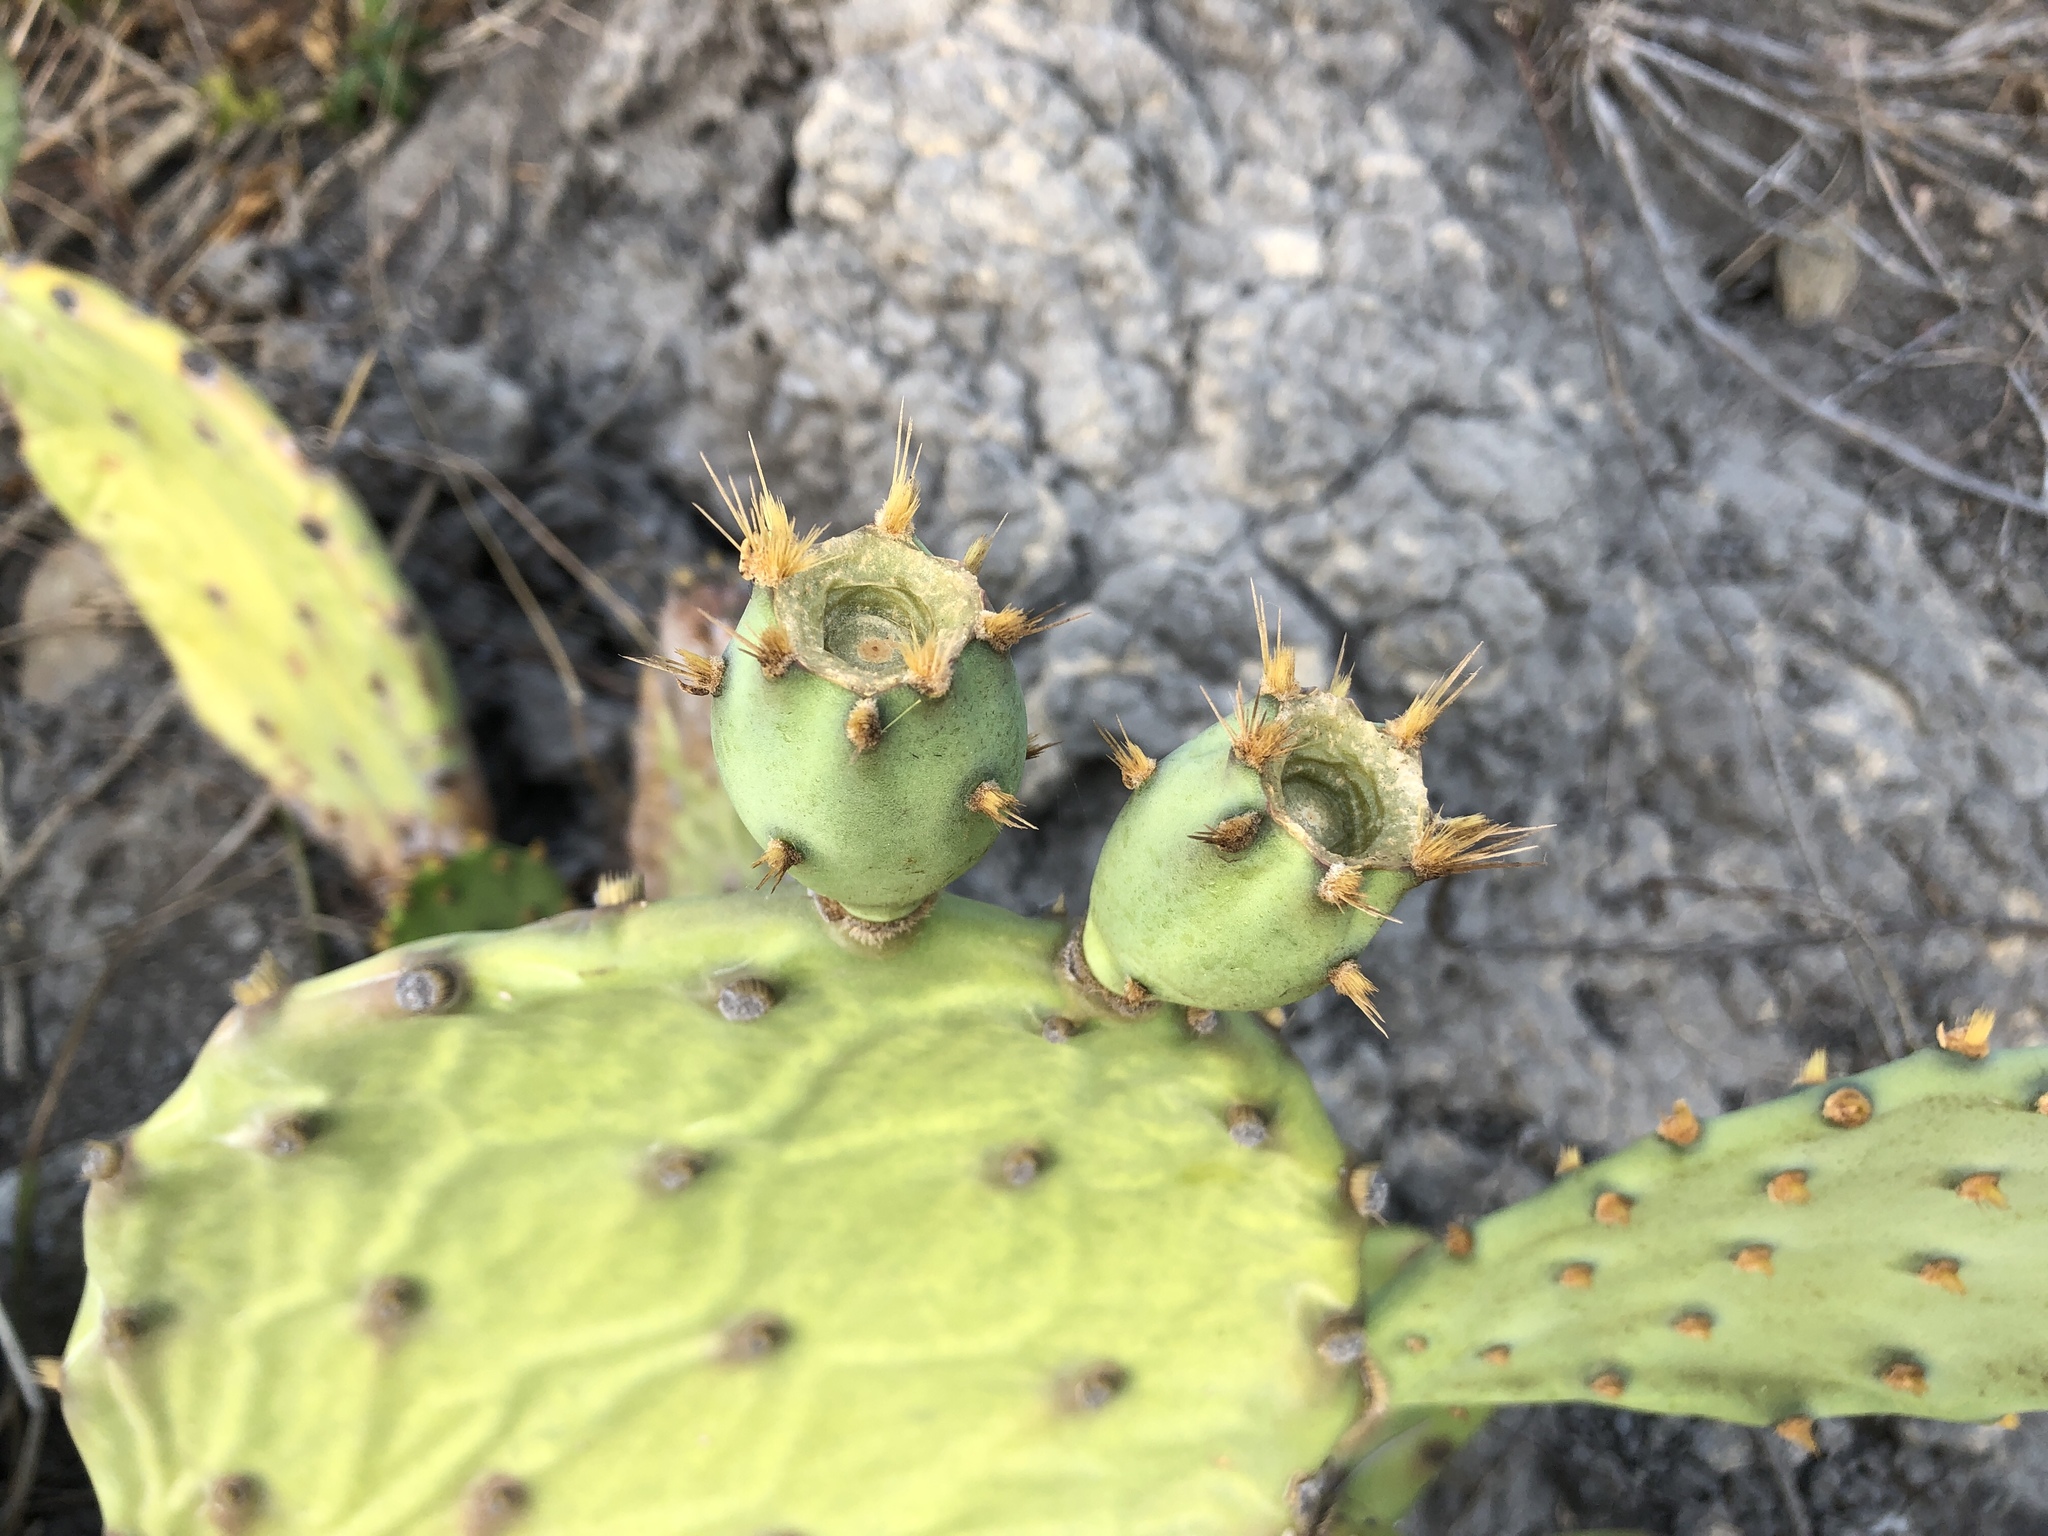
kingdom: Plantae
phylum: Tracheophyta
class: Magnoliopsida
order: Caryophyllales
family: Cactaceae
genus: Opuntia
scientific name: Opuntia stricta
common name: Erect pricklypear
